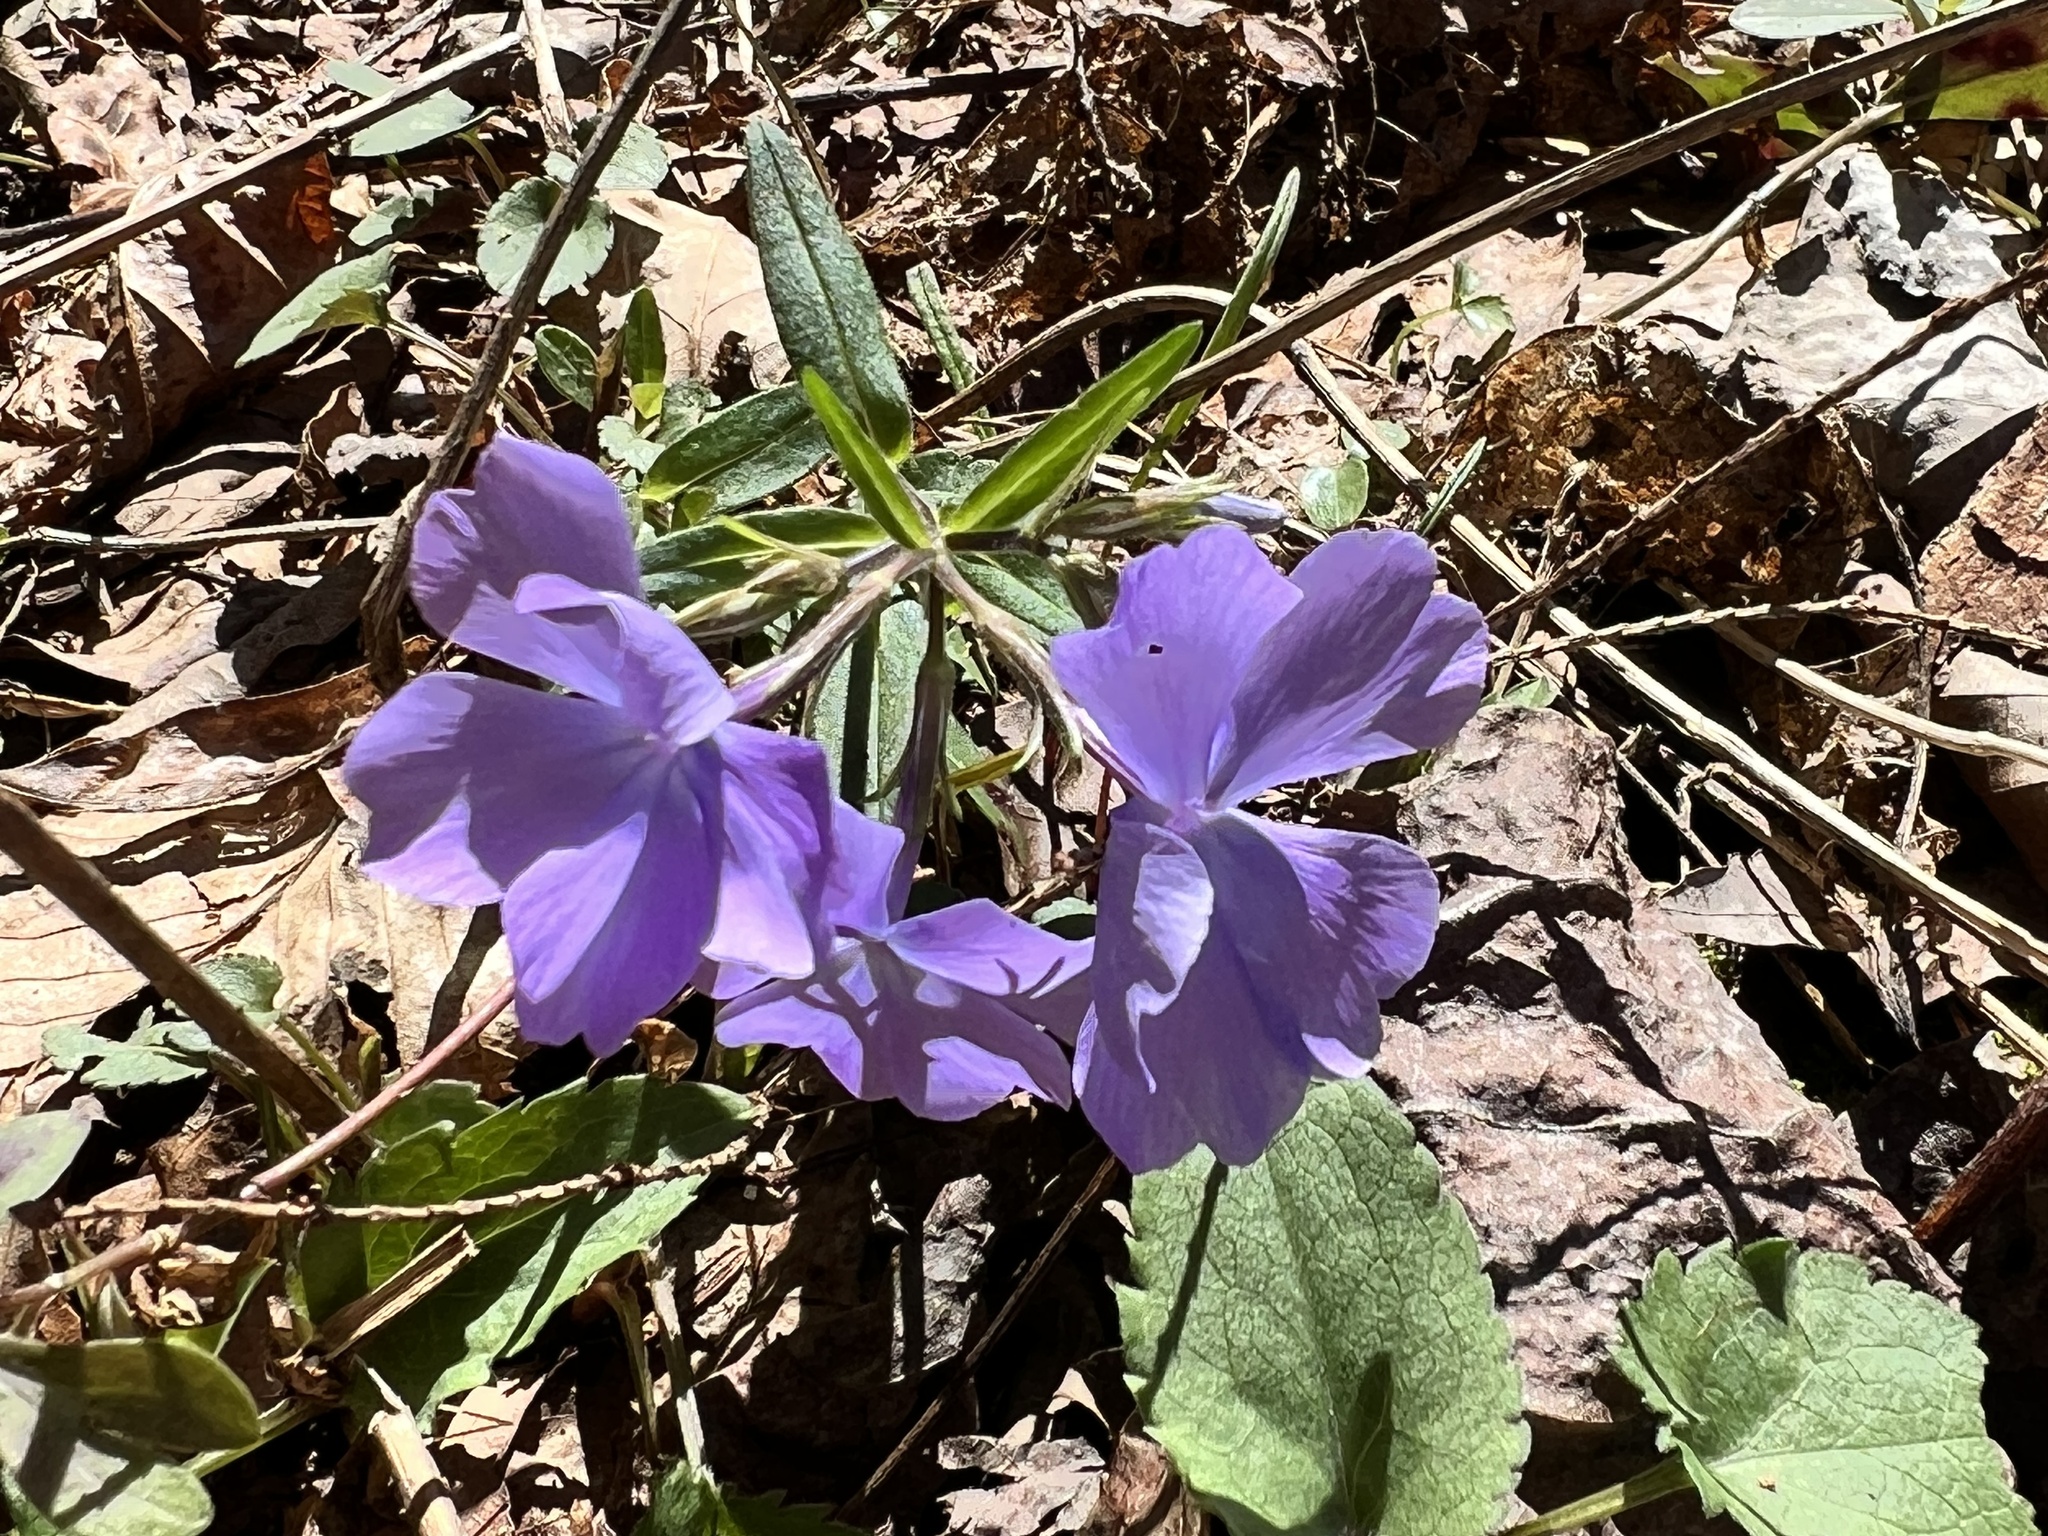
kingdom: Plantae
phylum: Tracheophyta
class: Magnoliopsida
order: Ericales
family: Polemoniaceae
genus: Phlox
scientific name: Phlox divaricata
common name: Blue phlox
